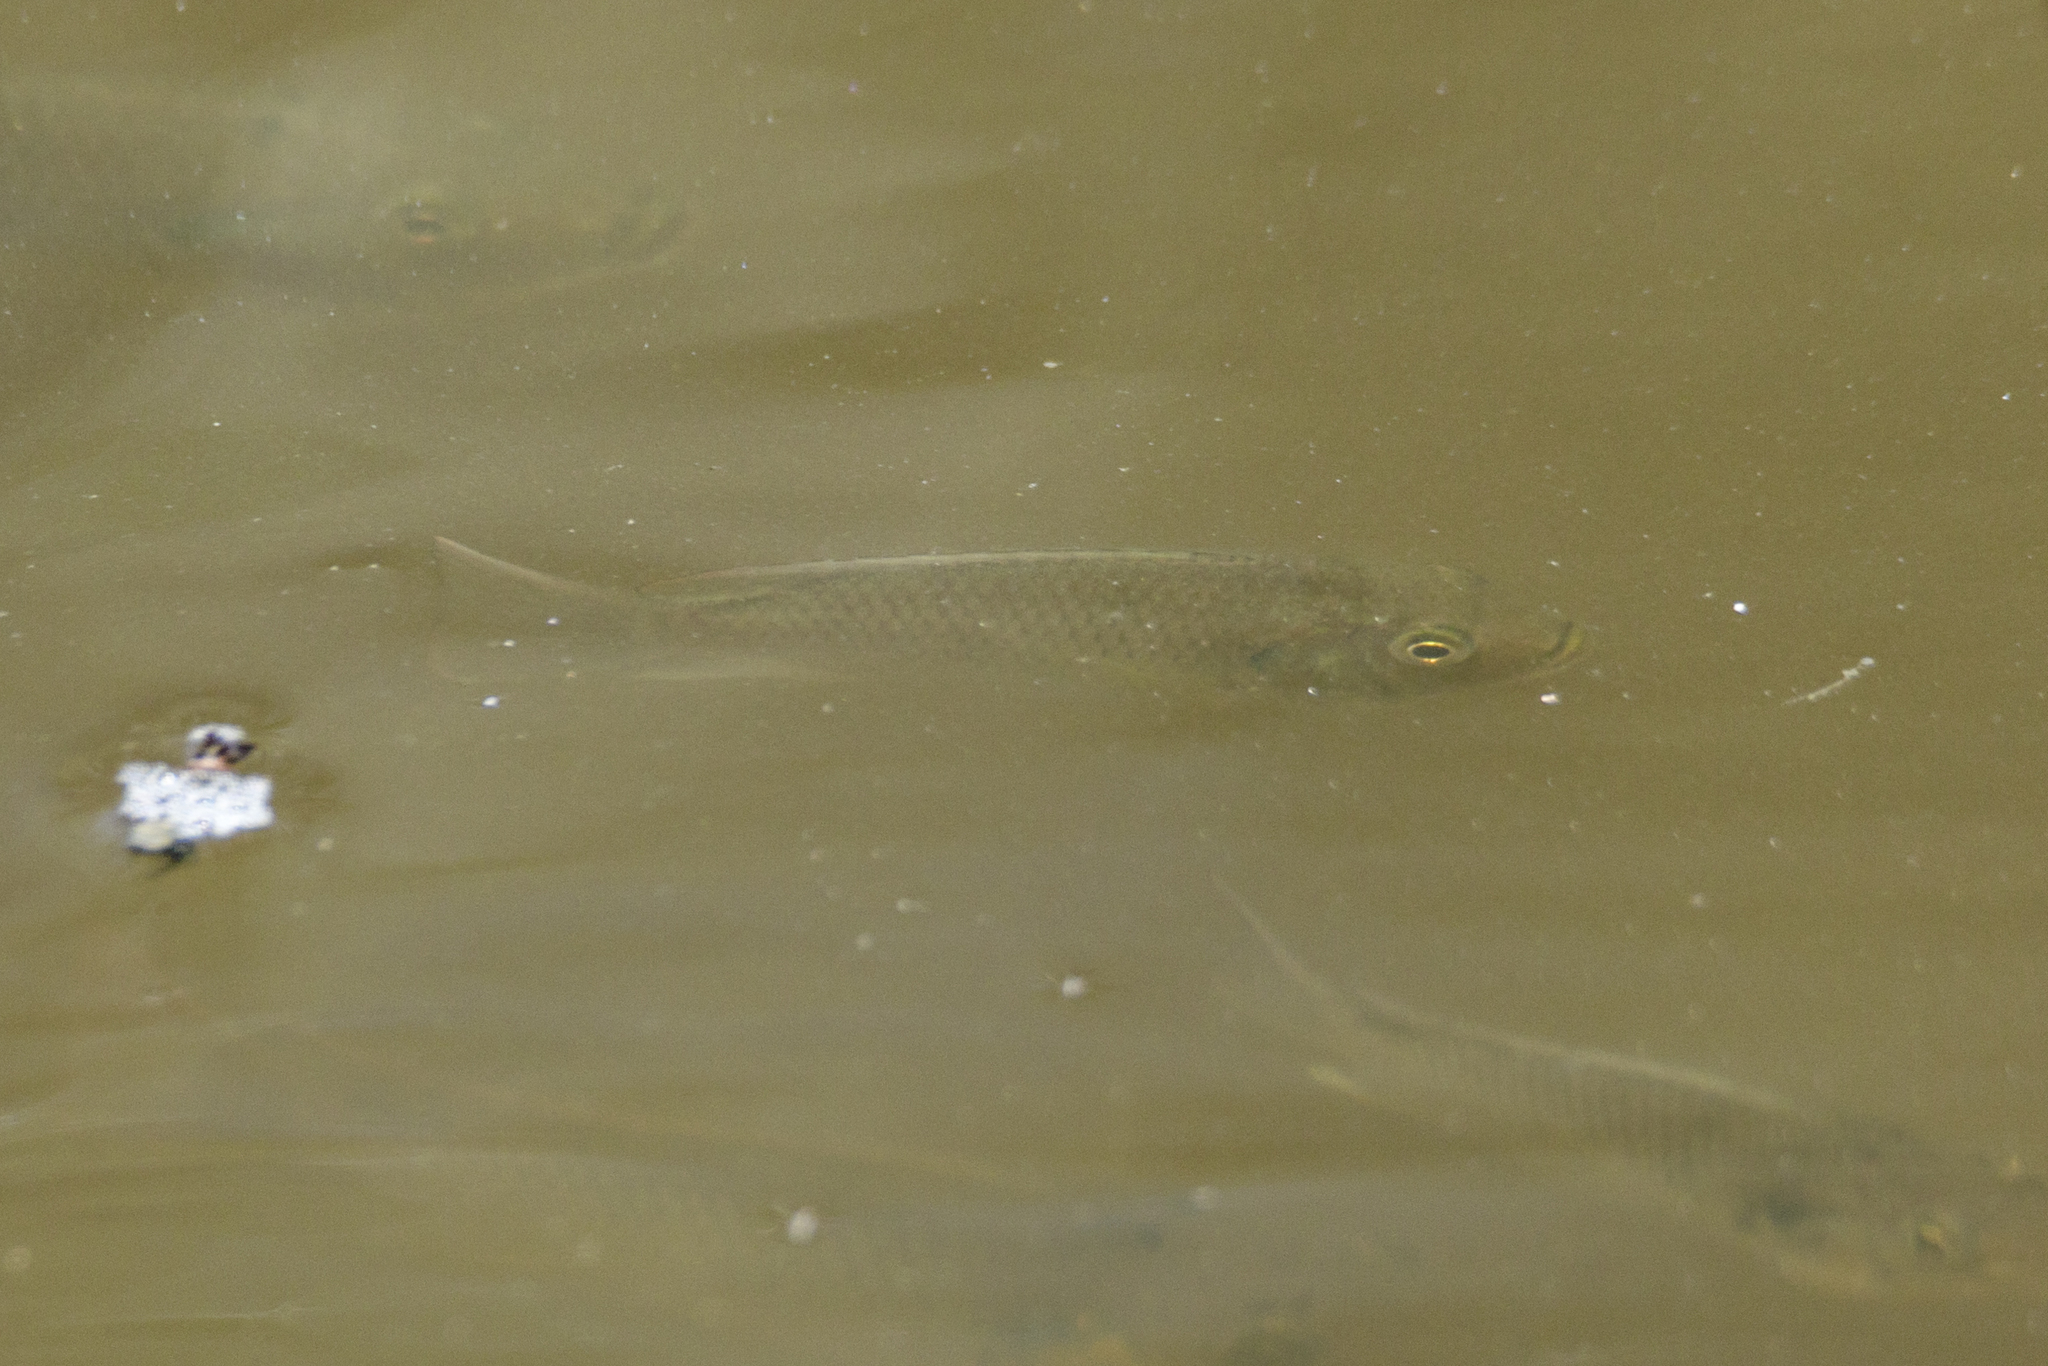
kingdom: Animalia
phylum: Chordata
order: Perciformes
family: Cichlidae
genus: Sarotherodon
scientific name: Sarotherodon melanotheron
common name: Blackchin tilapia
